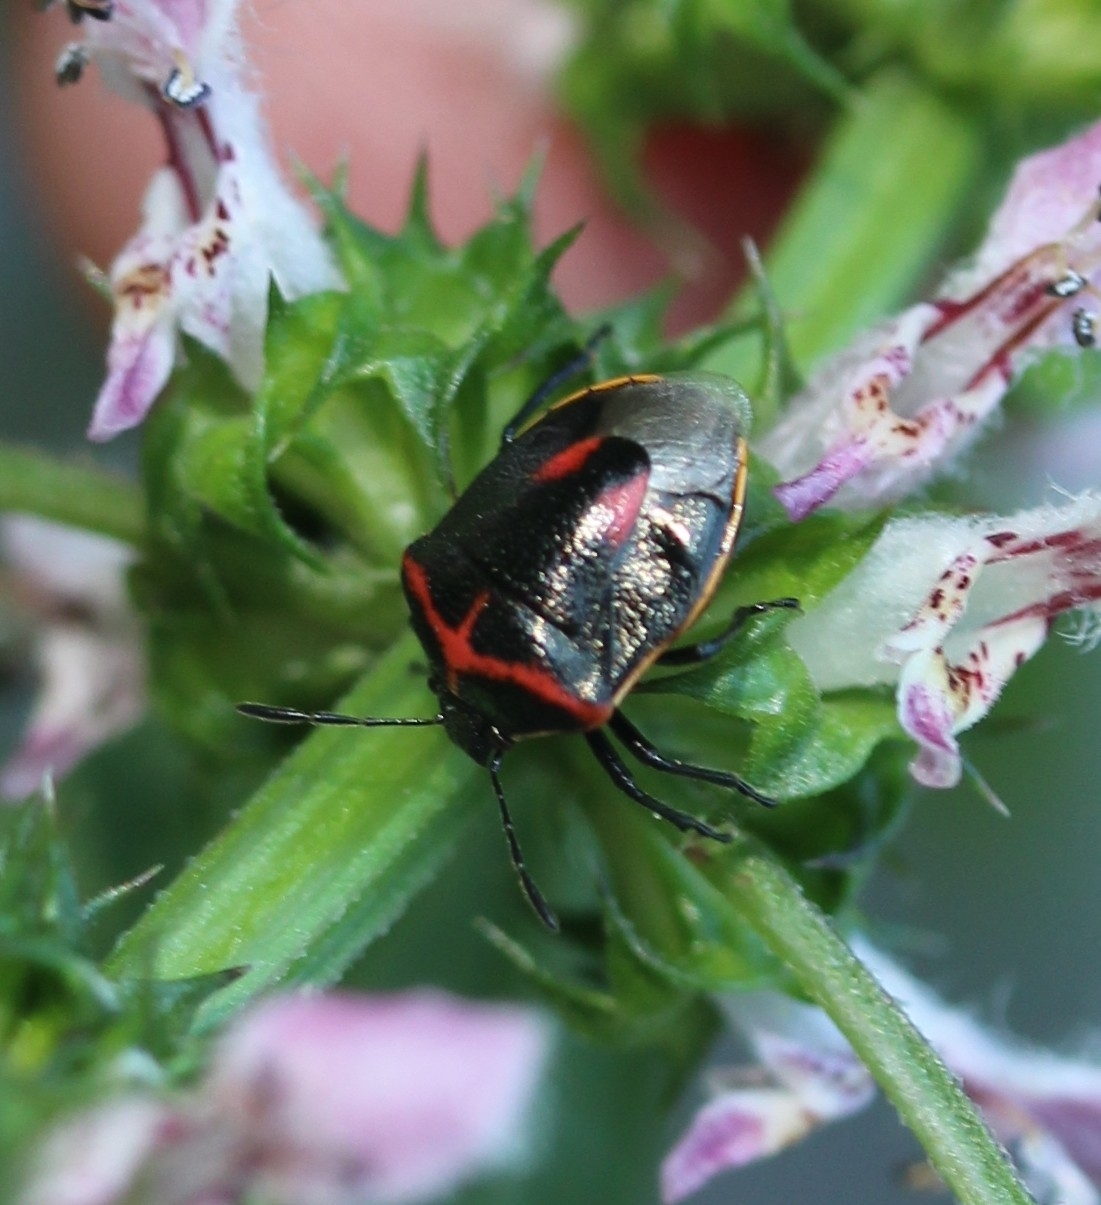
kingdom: Animalia
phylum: Arthropoda
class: Insecta
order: Hemiptera
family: Pentatomidae
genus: Cosmopepla
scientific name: Cosmopepla lintneriana
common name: Twice-stabbed stink bug
